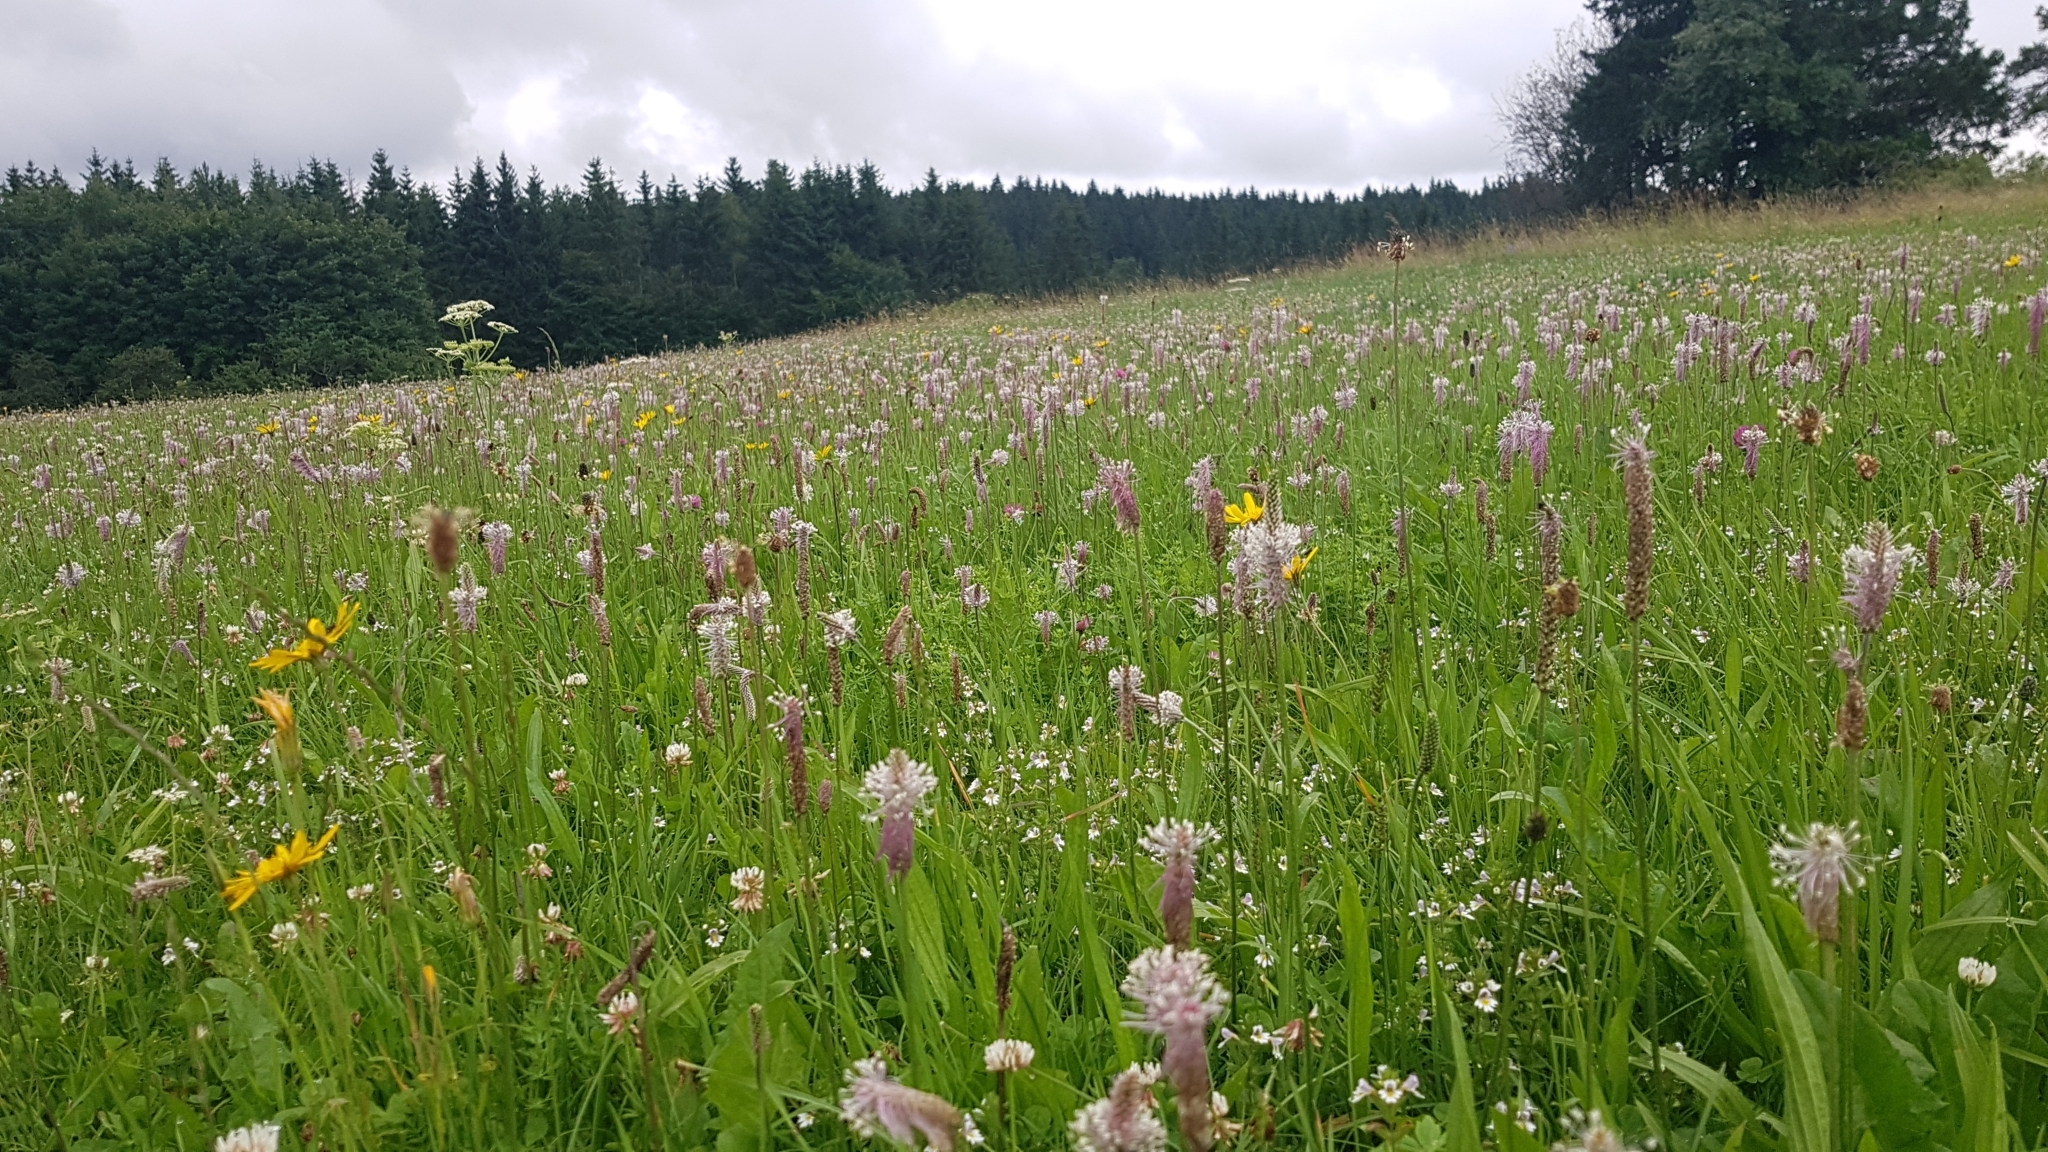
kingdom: Plantae
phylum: Tracheophyta
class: Magnoliopsida
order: Lamiales
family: Plantaginaceae
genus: Plantago
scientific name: Plantago media
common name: Hoary plantain
